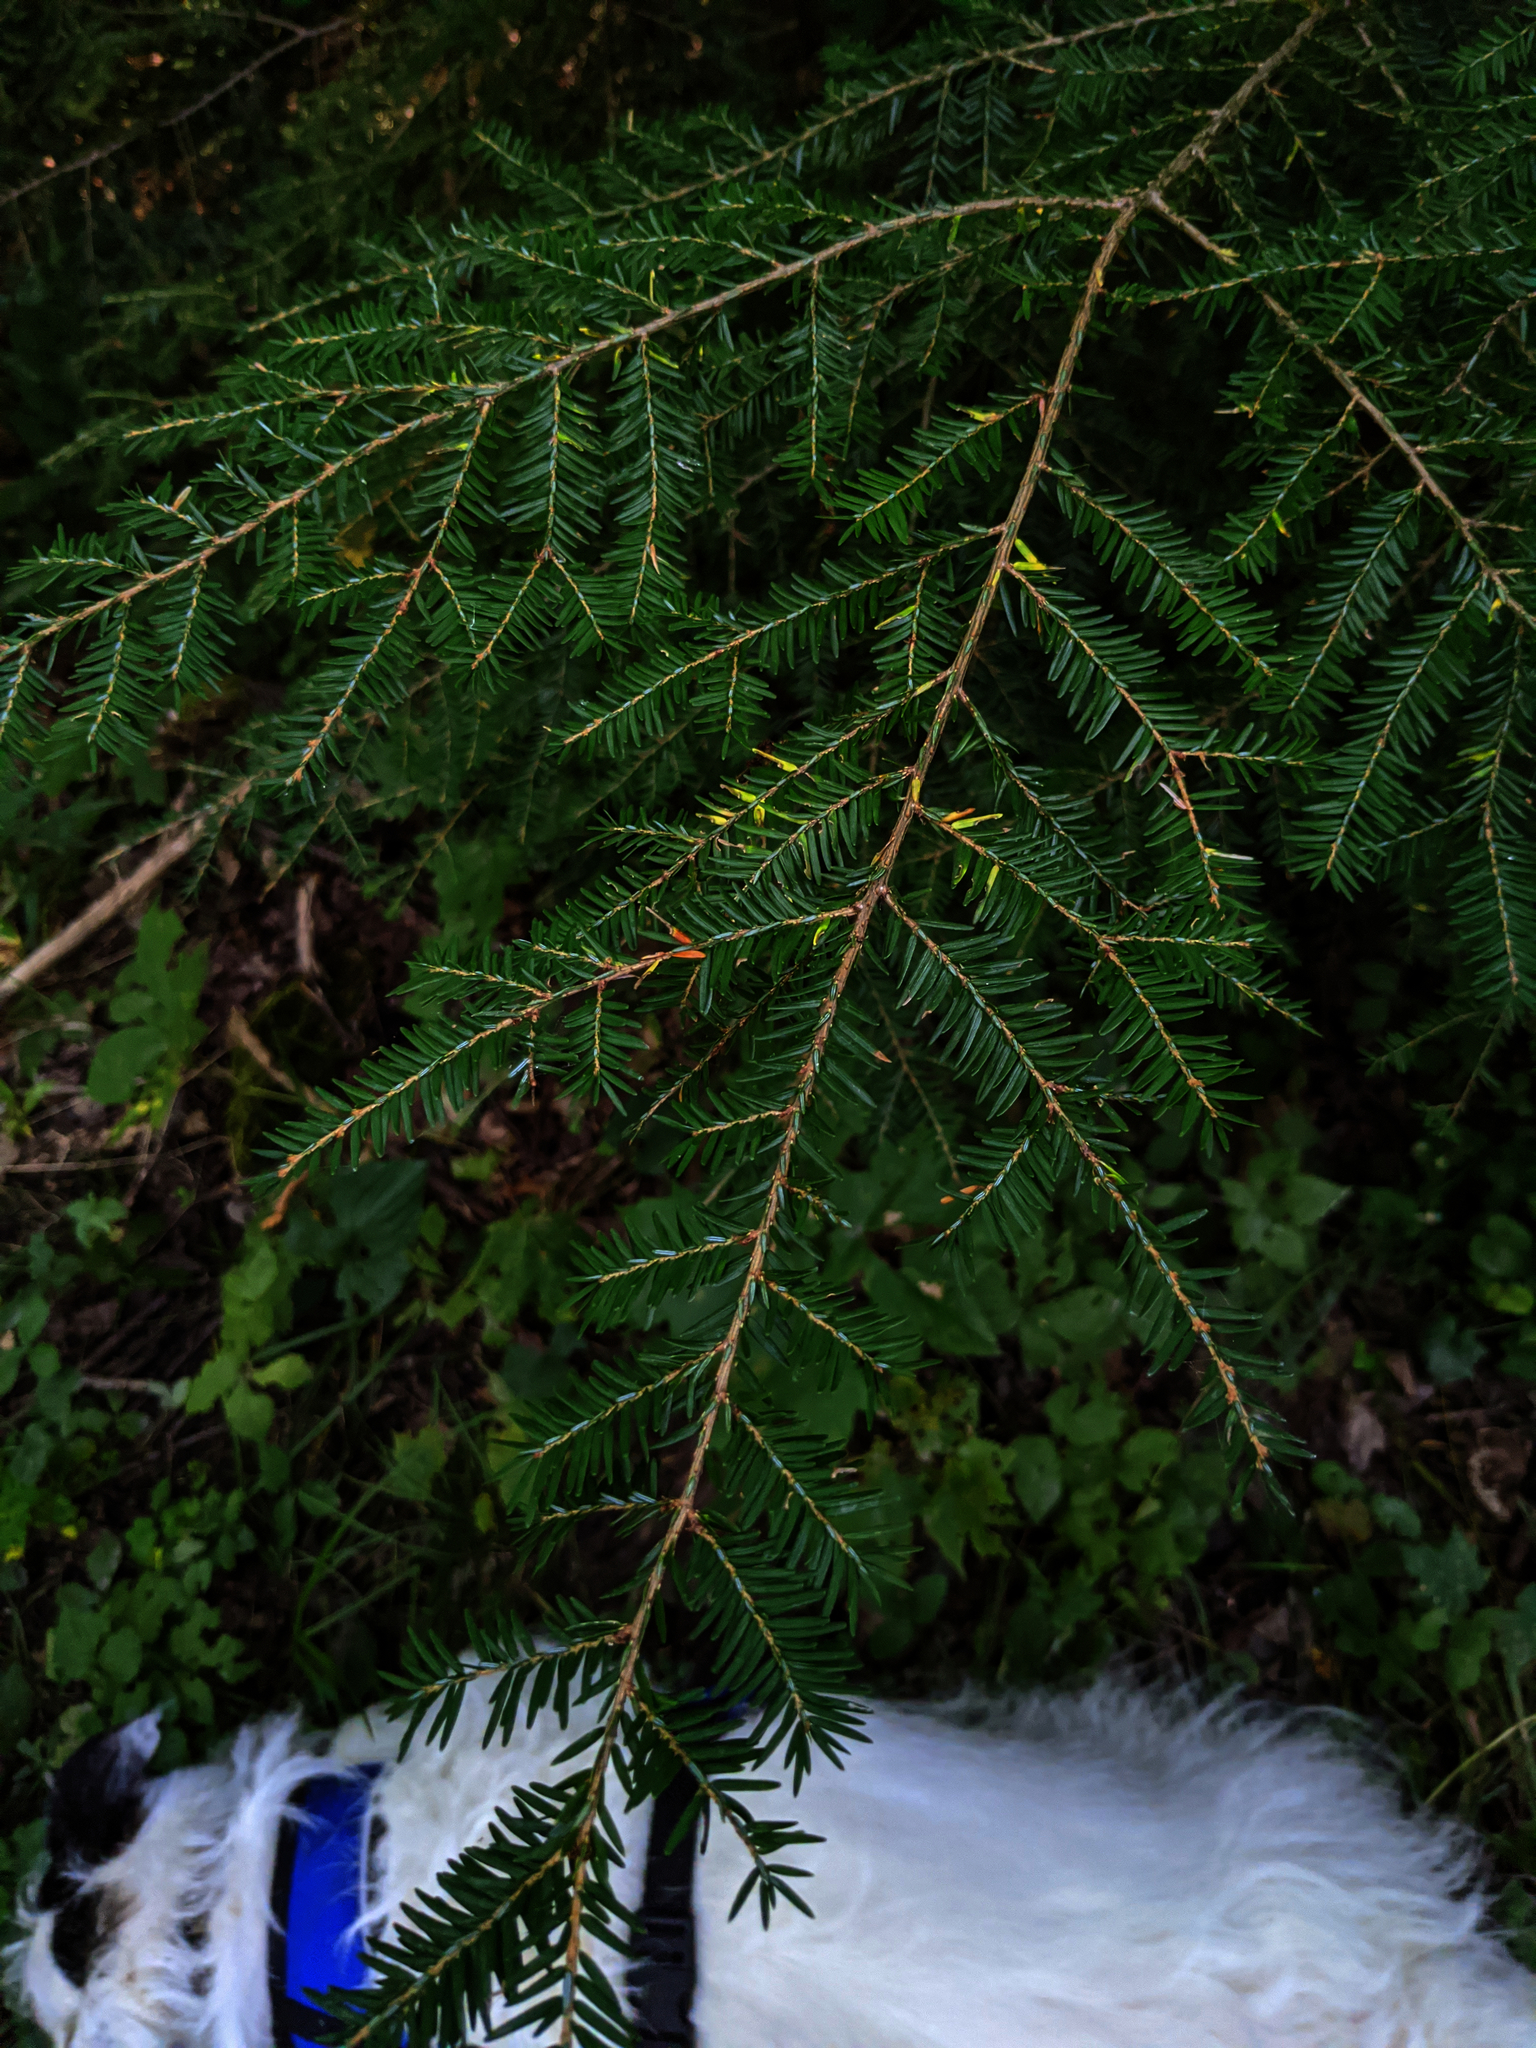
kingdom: Plantae
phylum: Tracheophyta
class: Pinopsida
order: Pinales
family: Pinaceae
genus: Tsuga
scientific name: Tsuga canadensis
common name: Eastern hemlock
